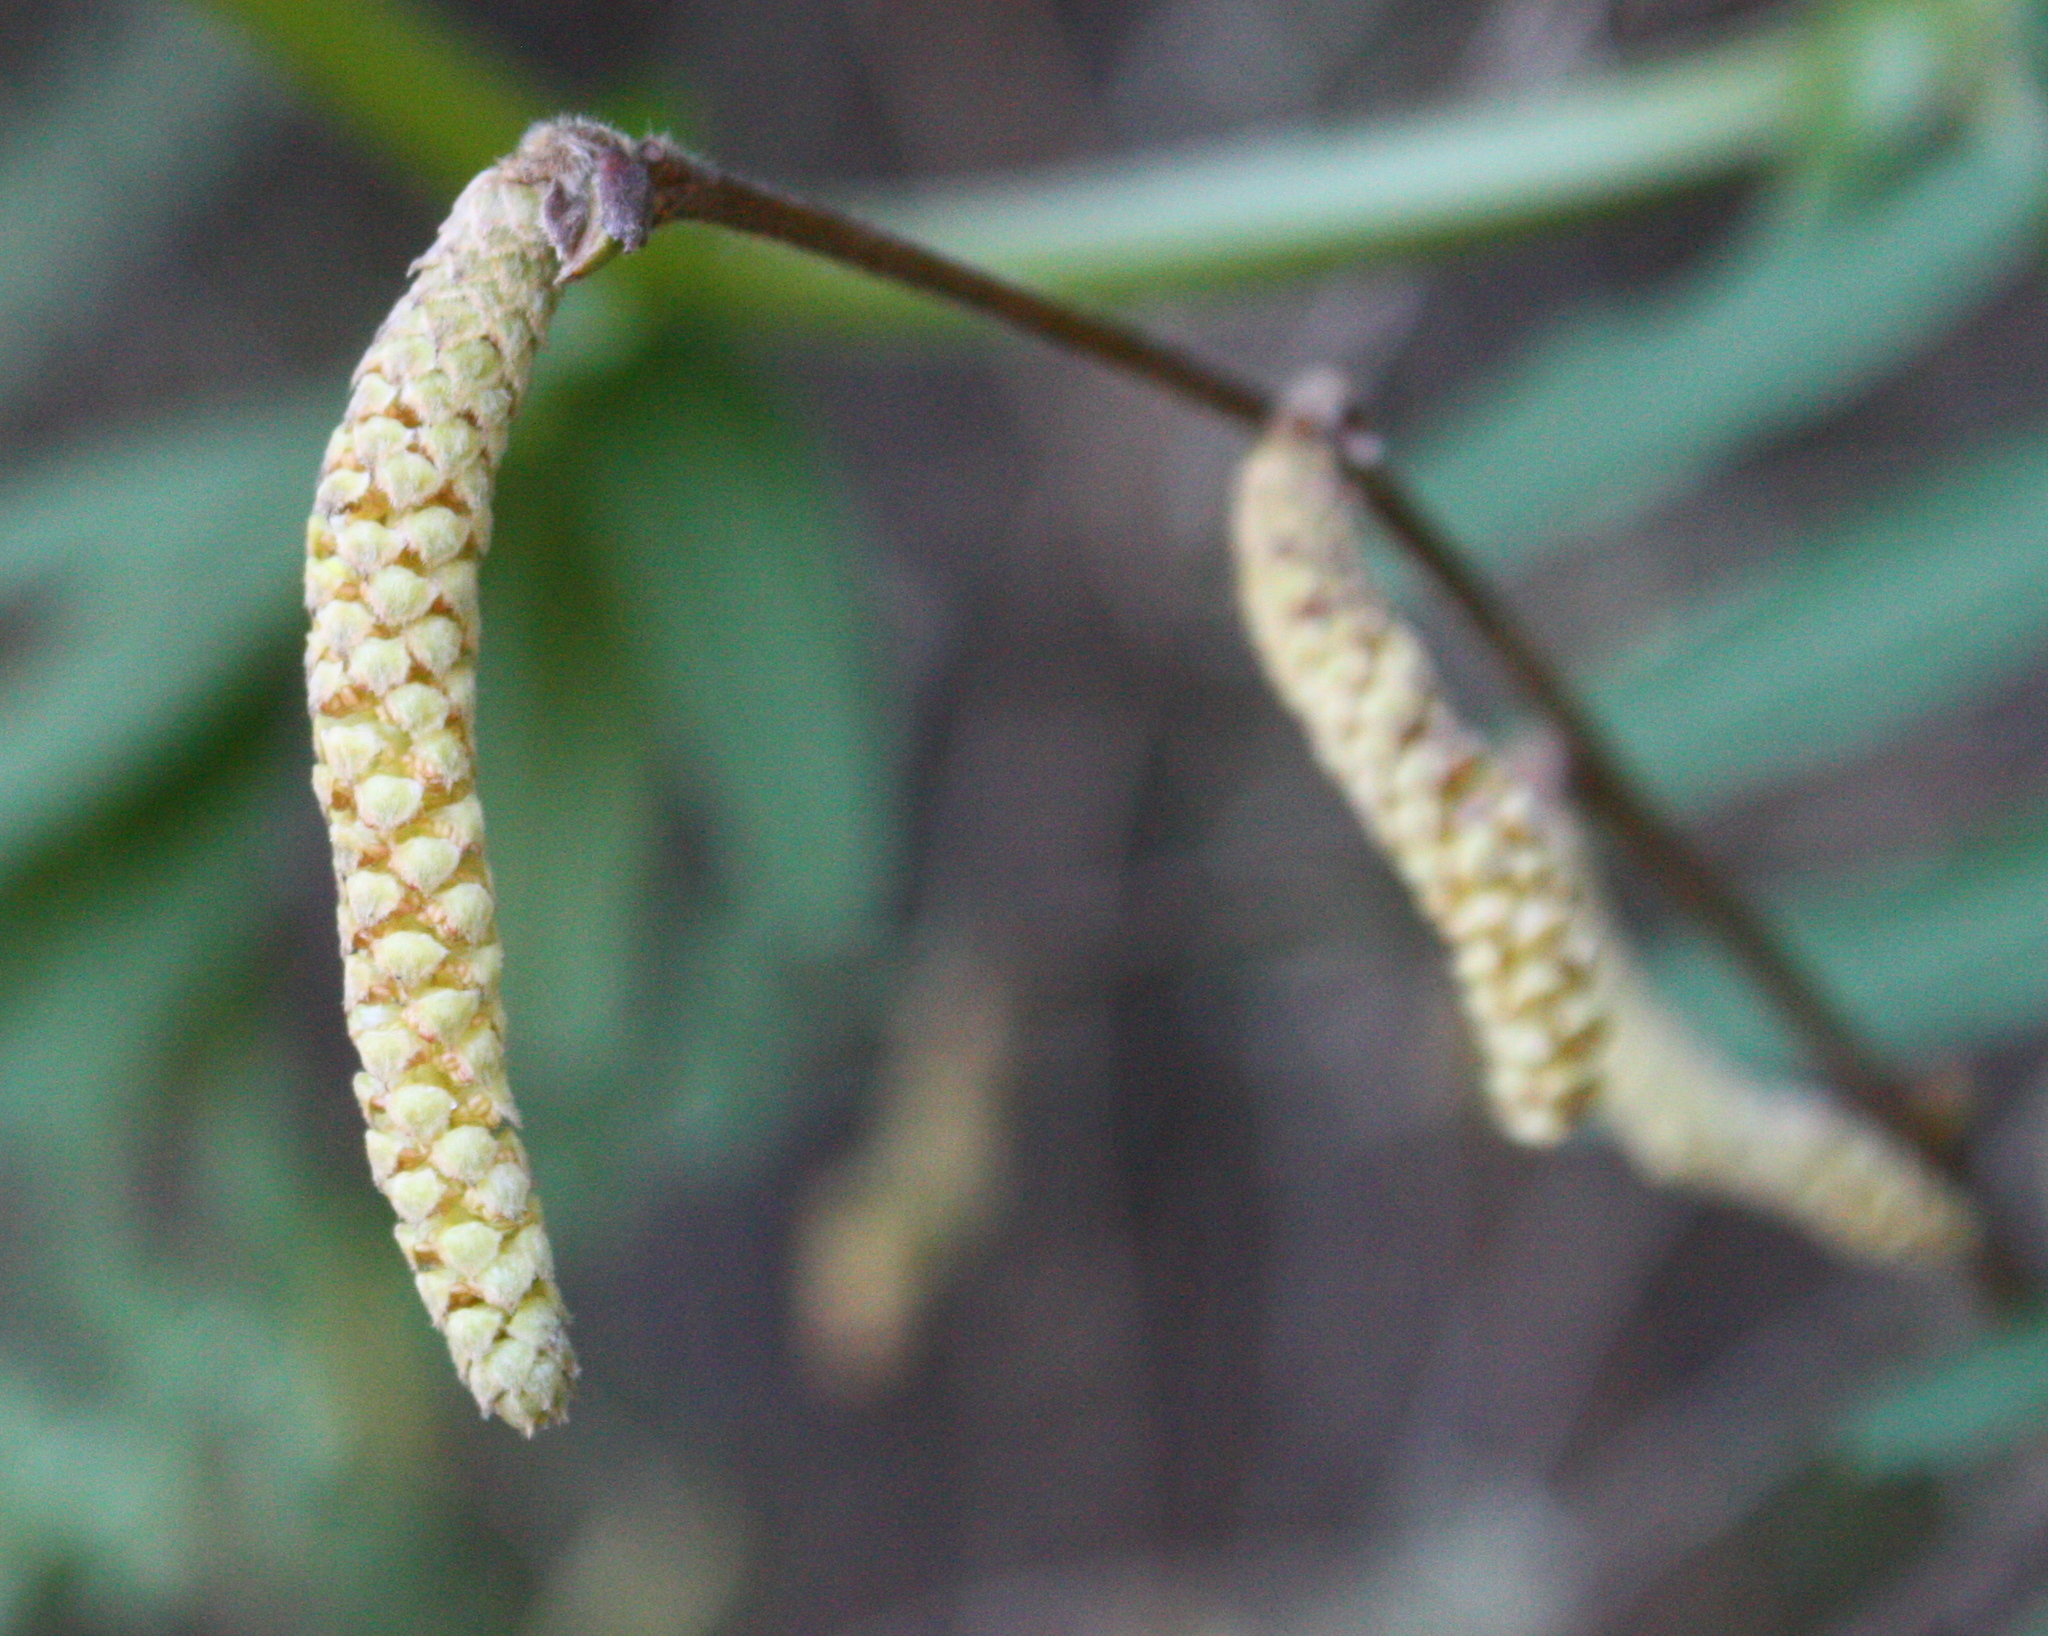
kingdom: Plantae
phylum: Tracheophyta
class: Magnoliopsida
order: Fagales
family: Betulaceae
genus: Corylus
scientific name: Corylus cornuta
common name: Beaked hazel
